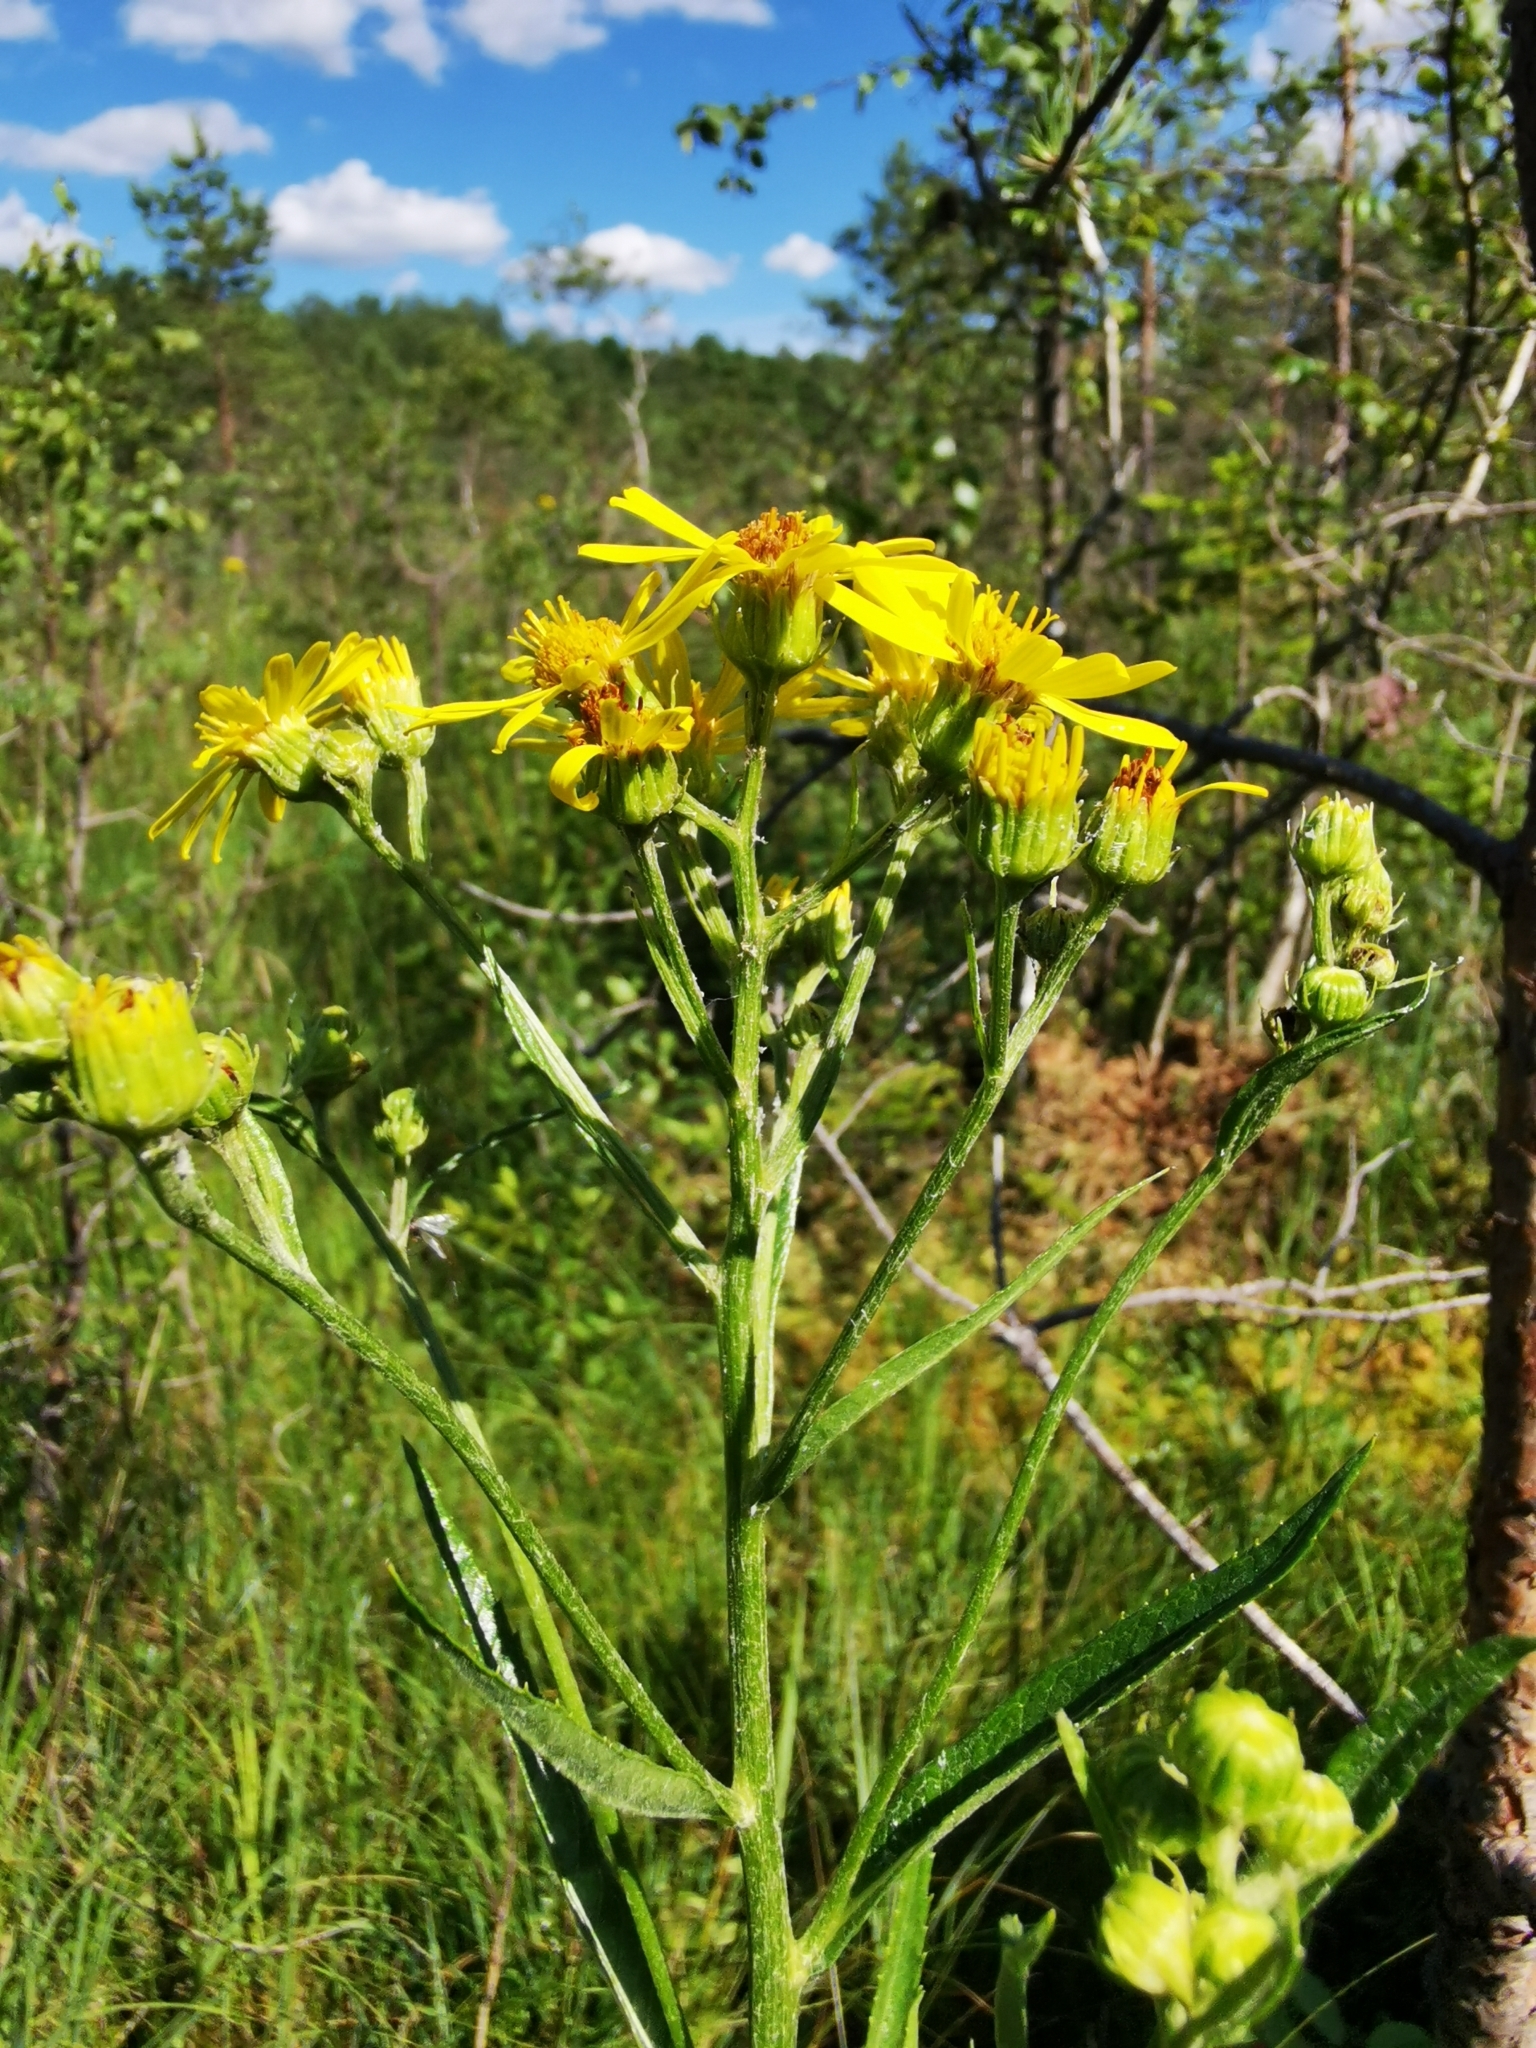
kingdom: Plantae
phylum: Tracheophyta
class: Magnoliopsida
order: Asterales
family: Asteraceae
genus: Jacobaea
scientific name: Jacobaea paludosa
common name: Fen ragwort
